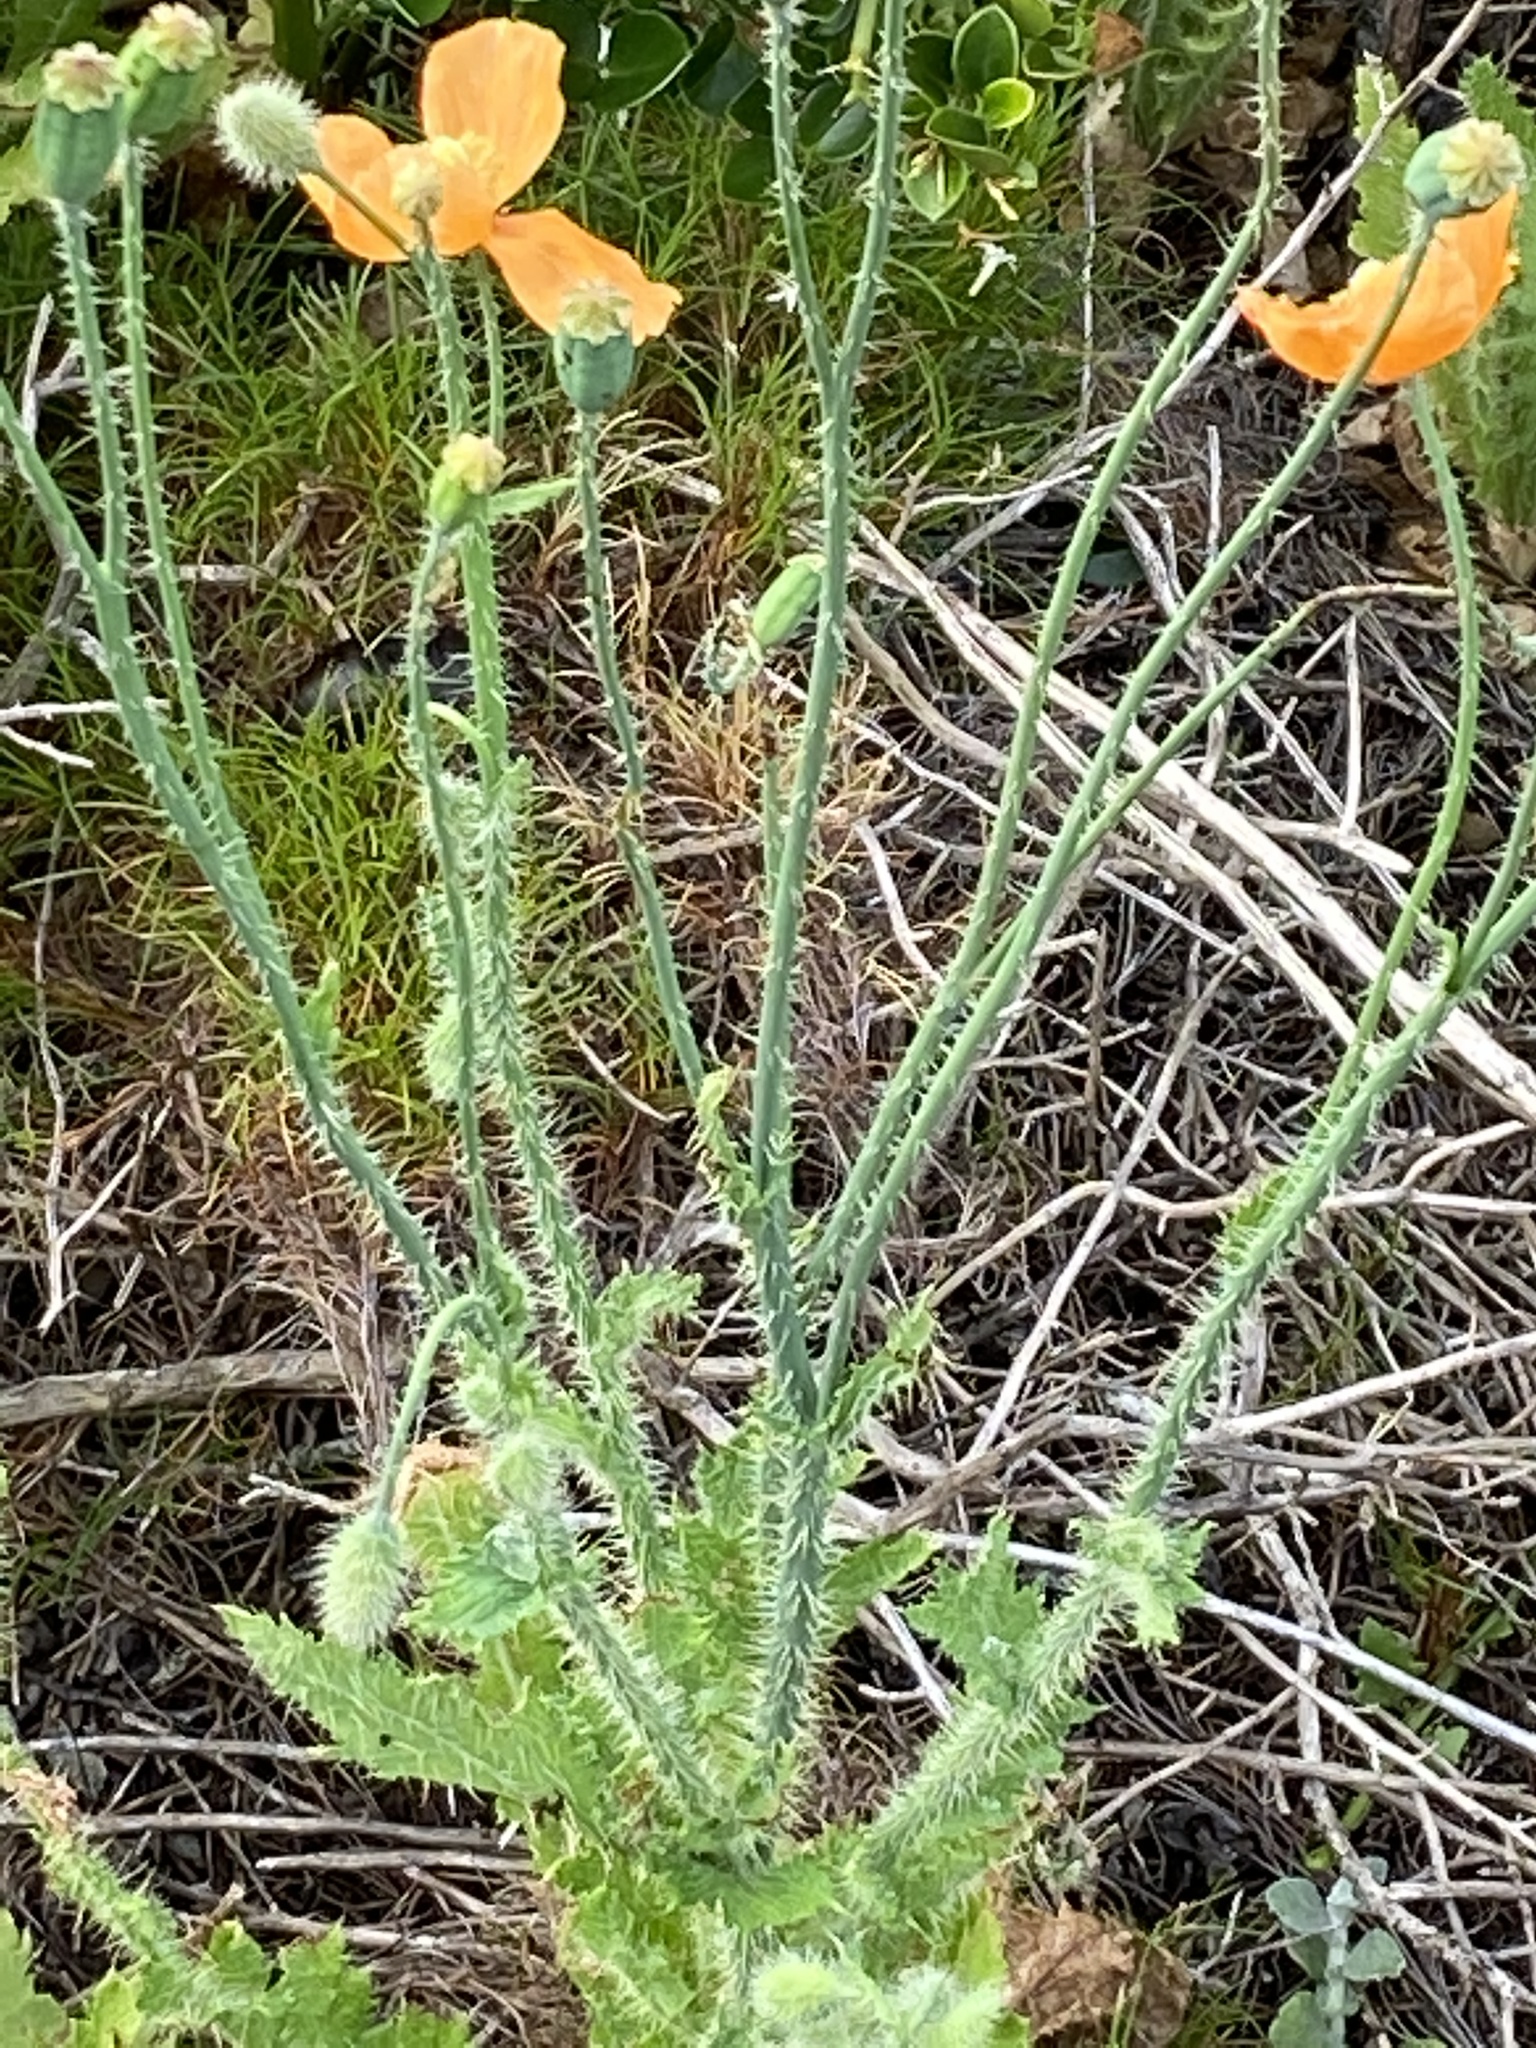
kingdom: Plantae
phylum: Tracheophyta
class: Magnoliopsida
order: Ranunculales
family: Papaveraceae
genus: Papaver
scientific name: Papaver aculeatum
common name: Bristle poppy
